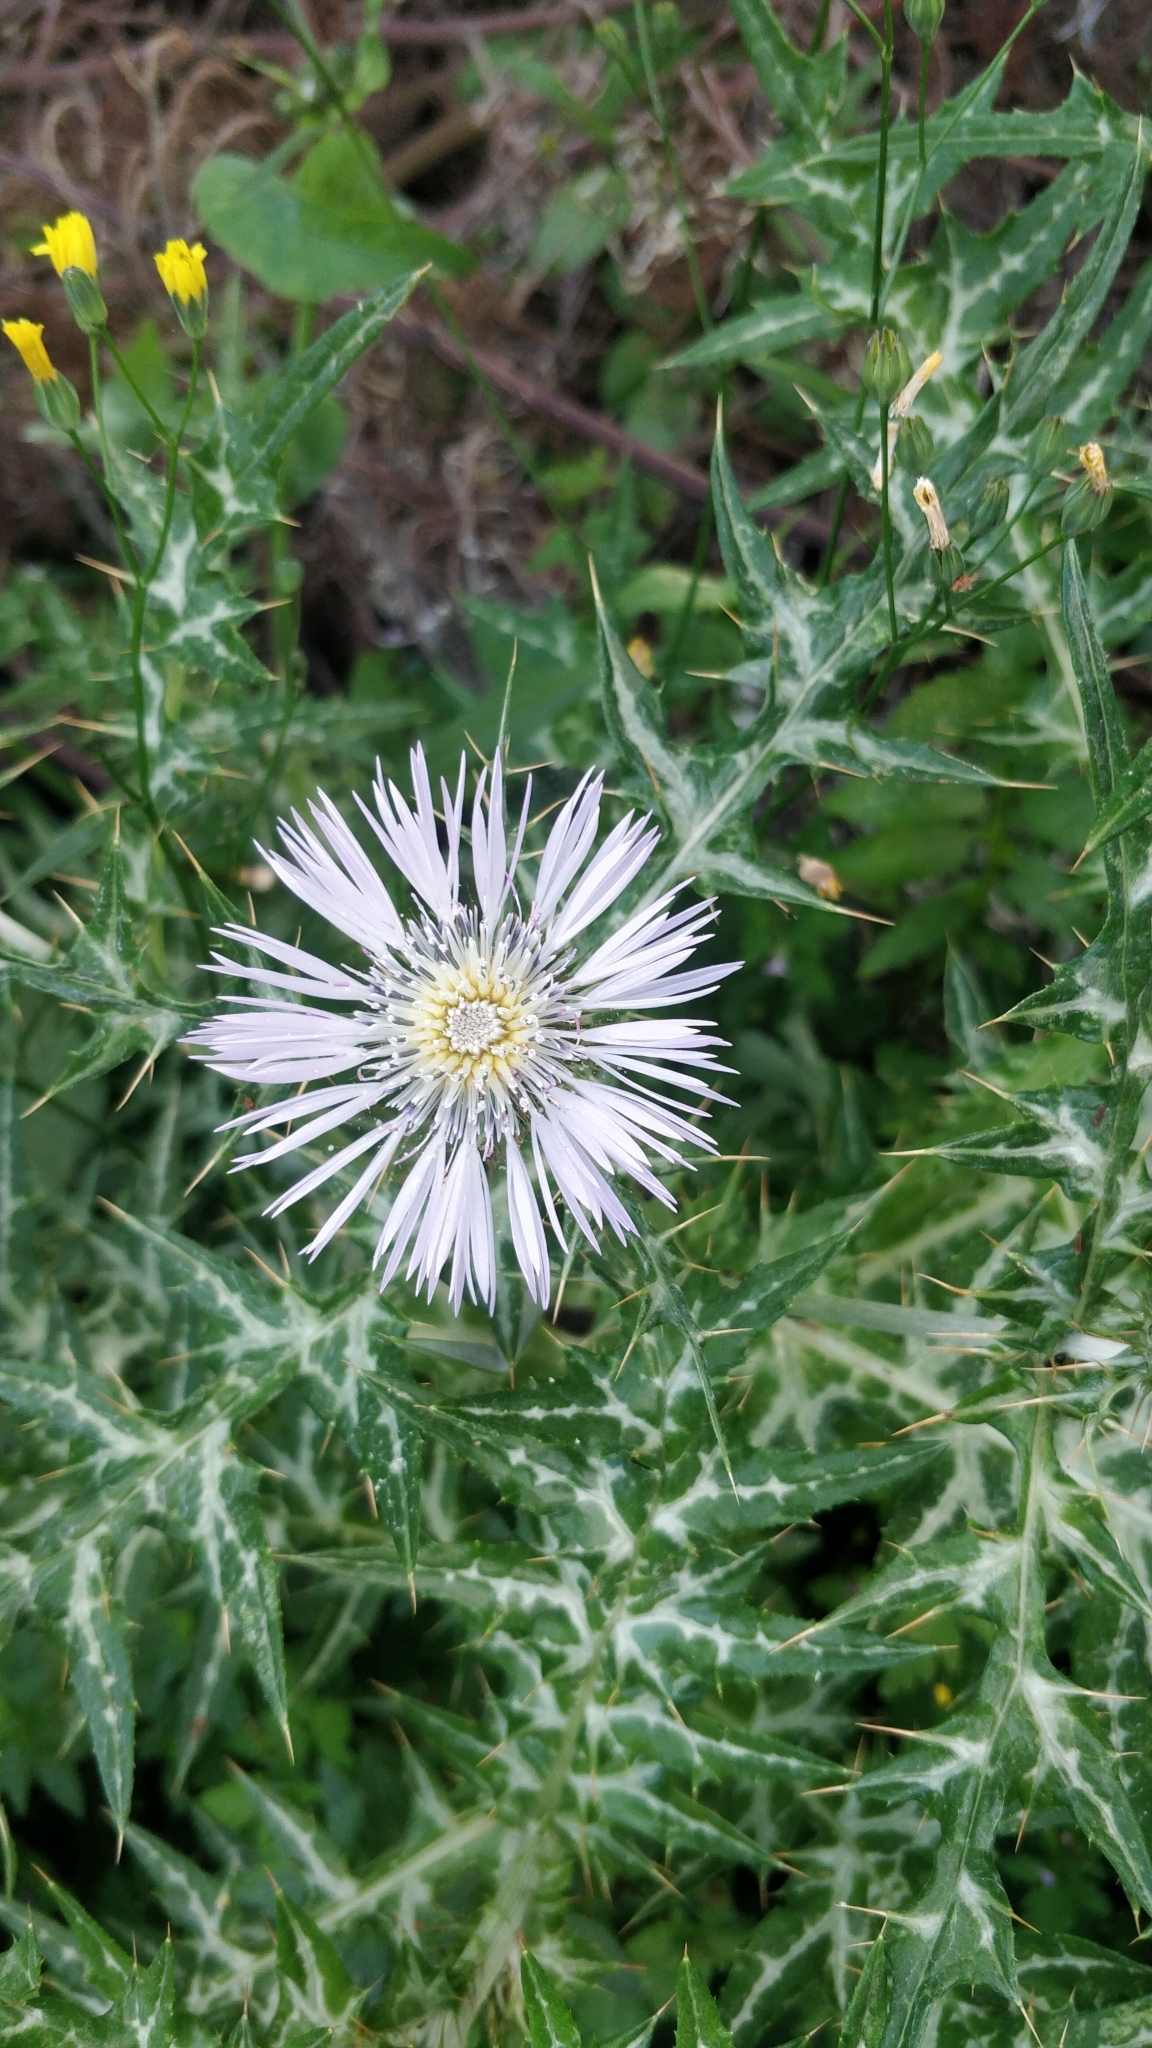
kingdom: Plantae
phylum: Tracheophyta
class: Magnoliopsida
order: Asterales
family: Asteraceae
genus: Galactites
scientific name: Galactites tomentosa
